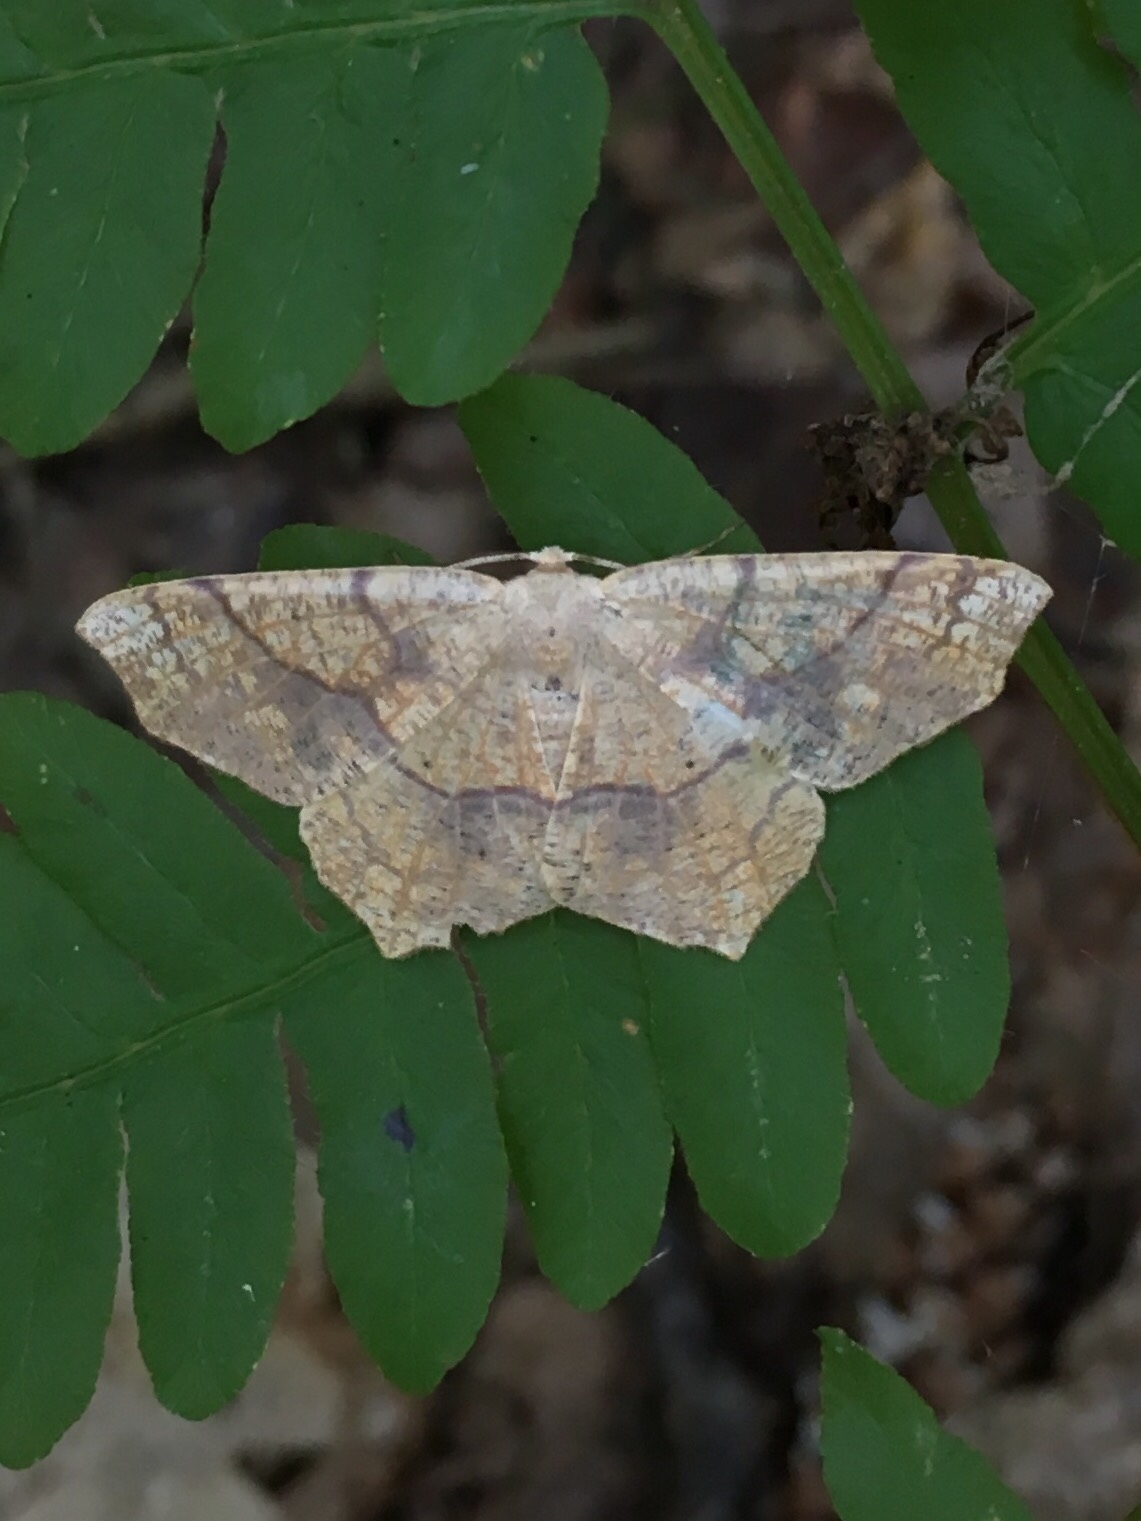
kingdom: Animalia
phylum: Arthropoda
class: Insecta
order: Lepidoptera
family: Geometridae
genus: Besma
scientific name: Besma quercivoraria
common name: Oak besma
